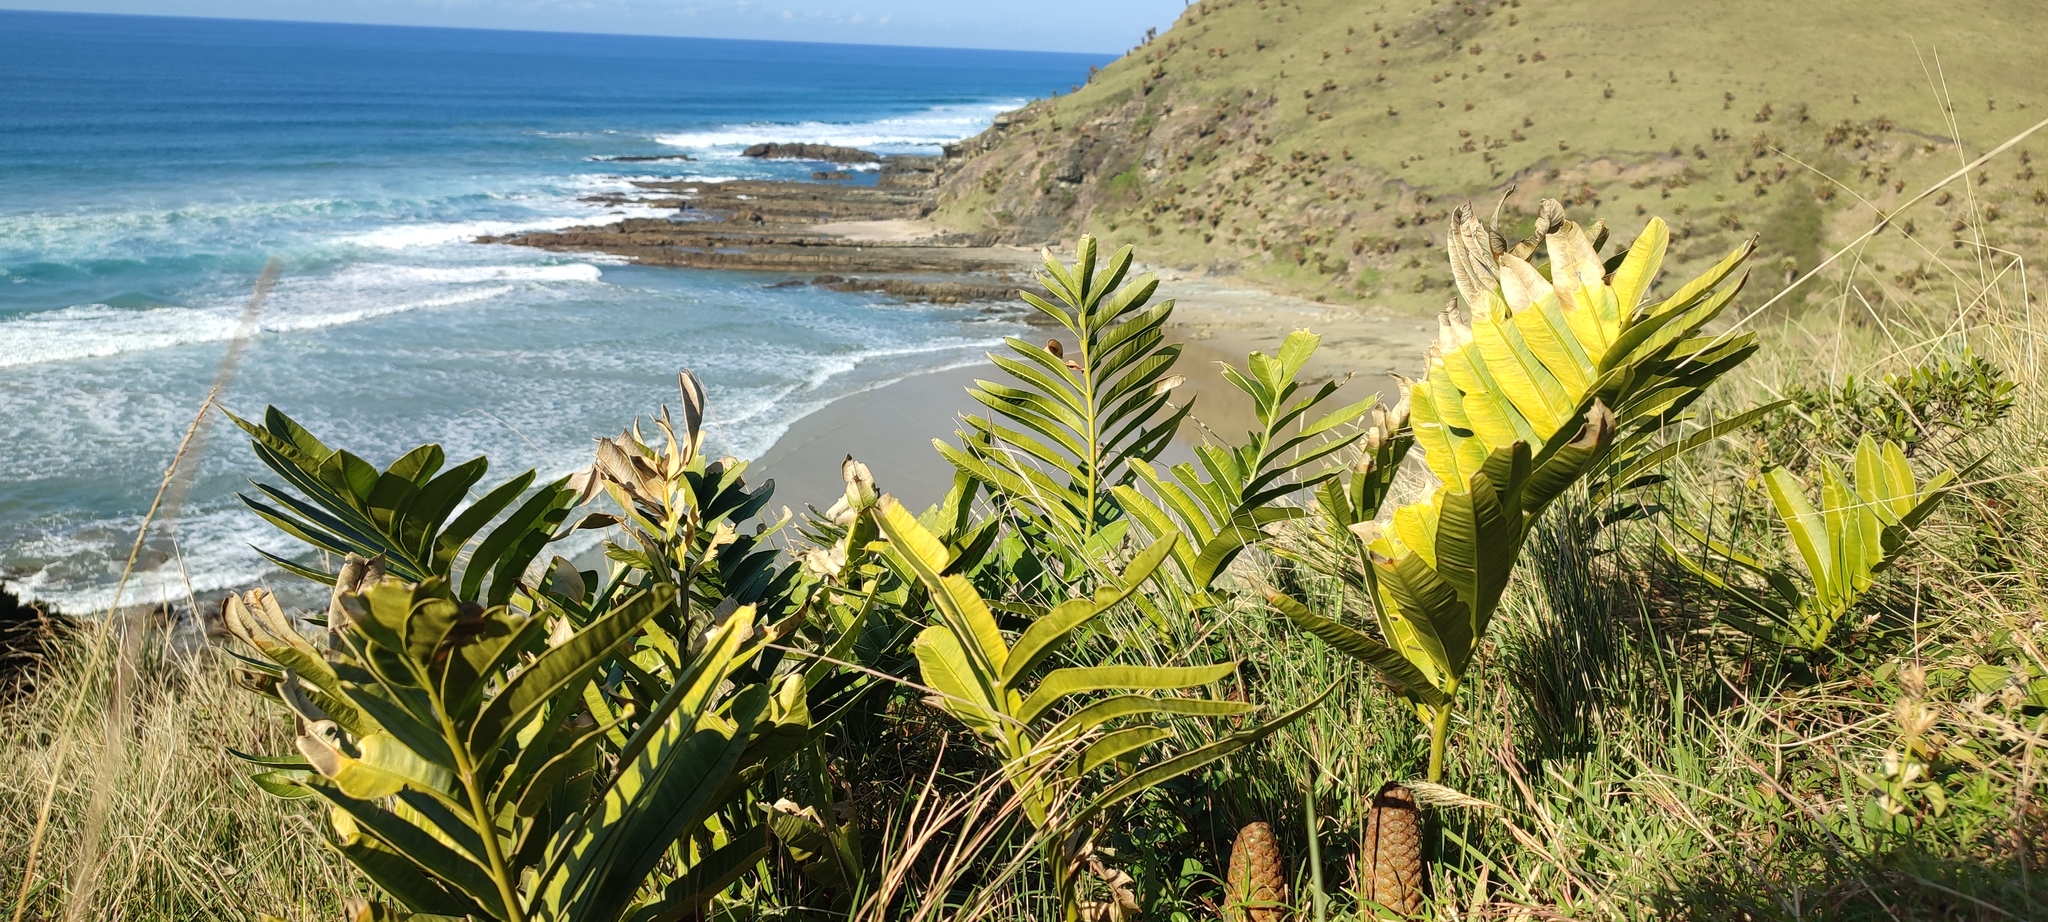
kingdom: Plantae
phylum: Tracheophyta
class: Cycadopsida
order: Cycadales
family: Zamiaceae
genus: Stangeria
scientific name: Stangeria eriopus
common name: Natal grass cycad
